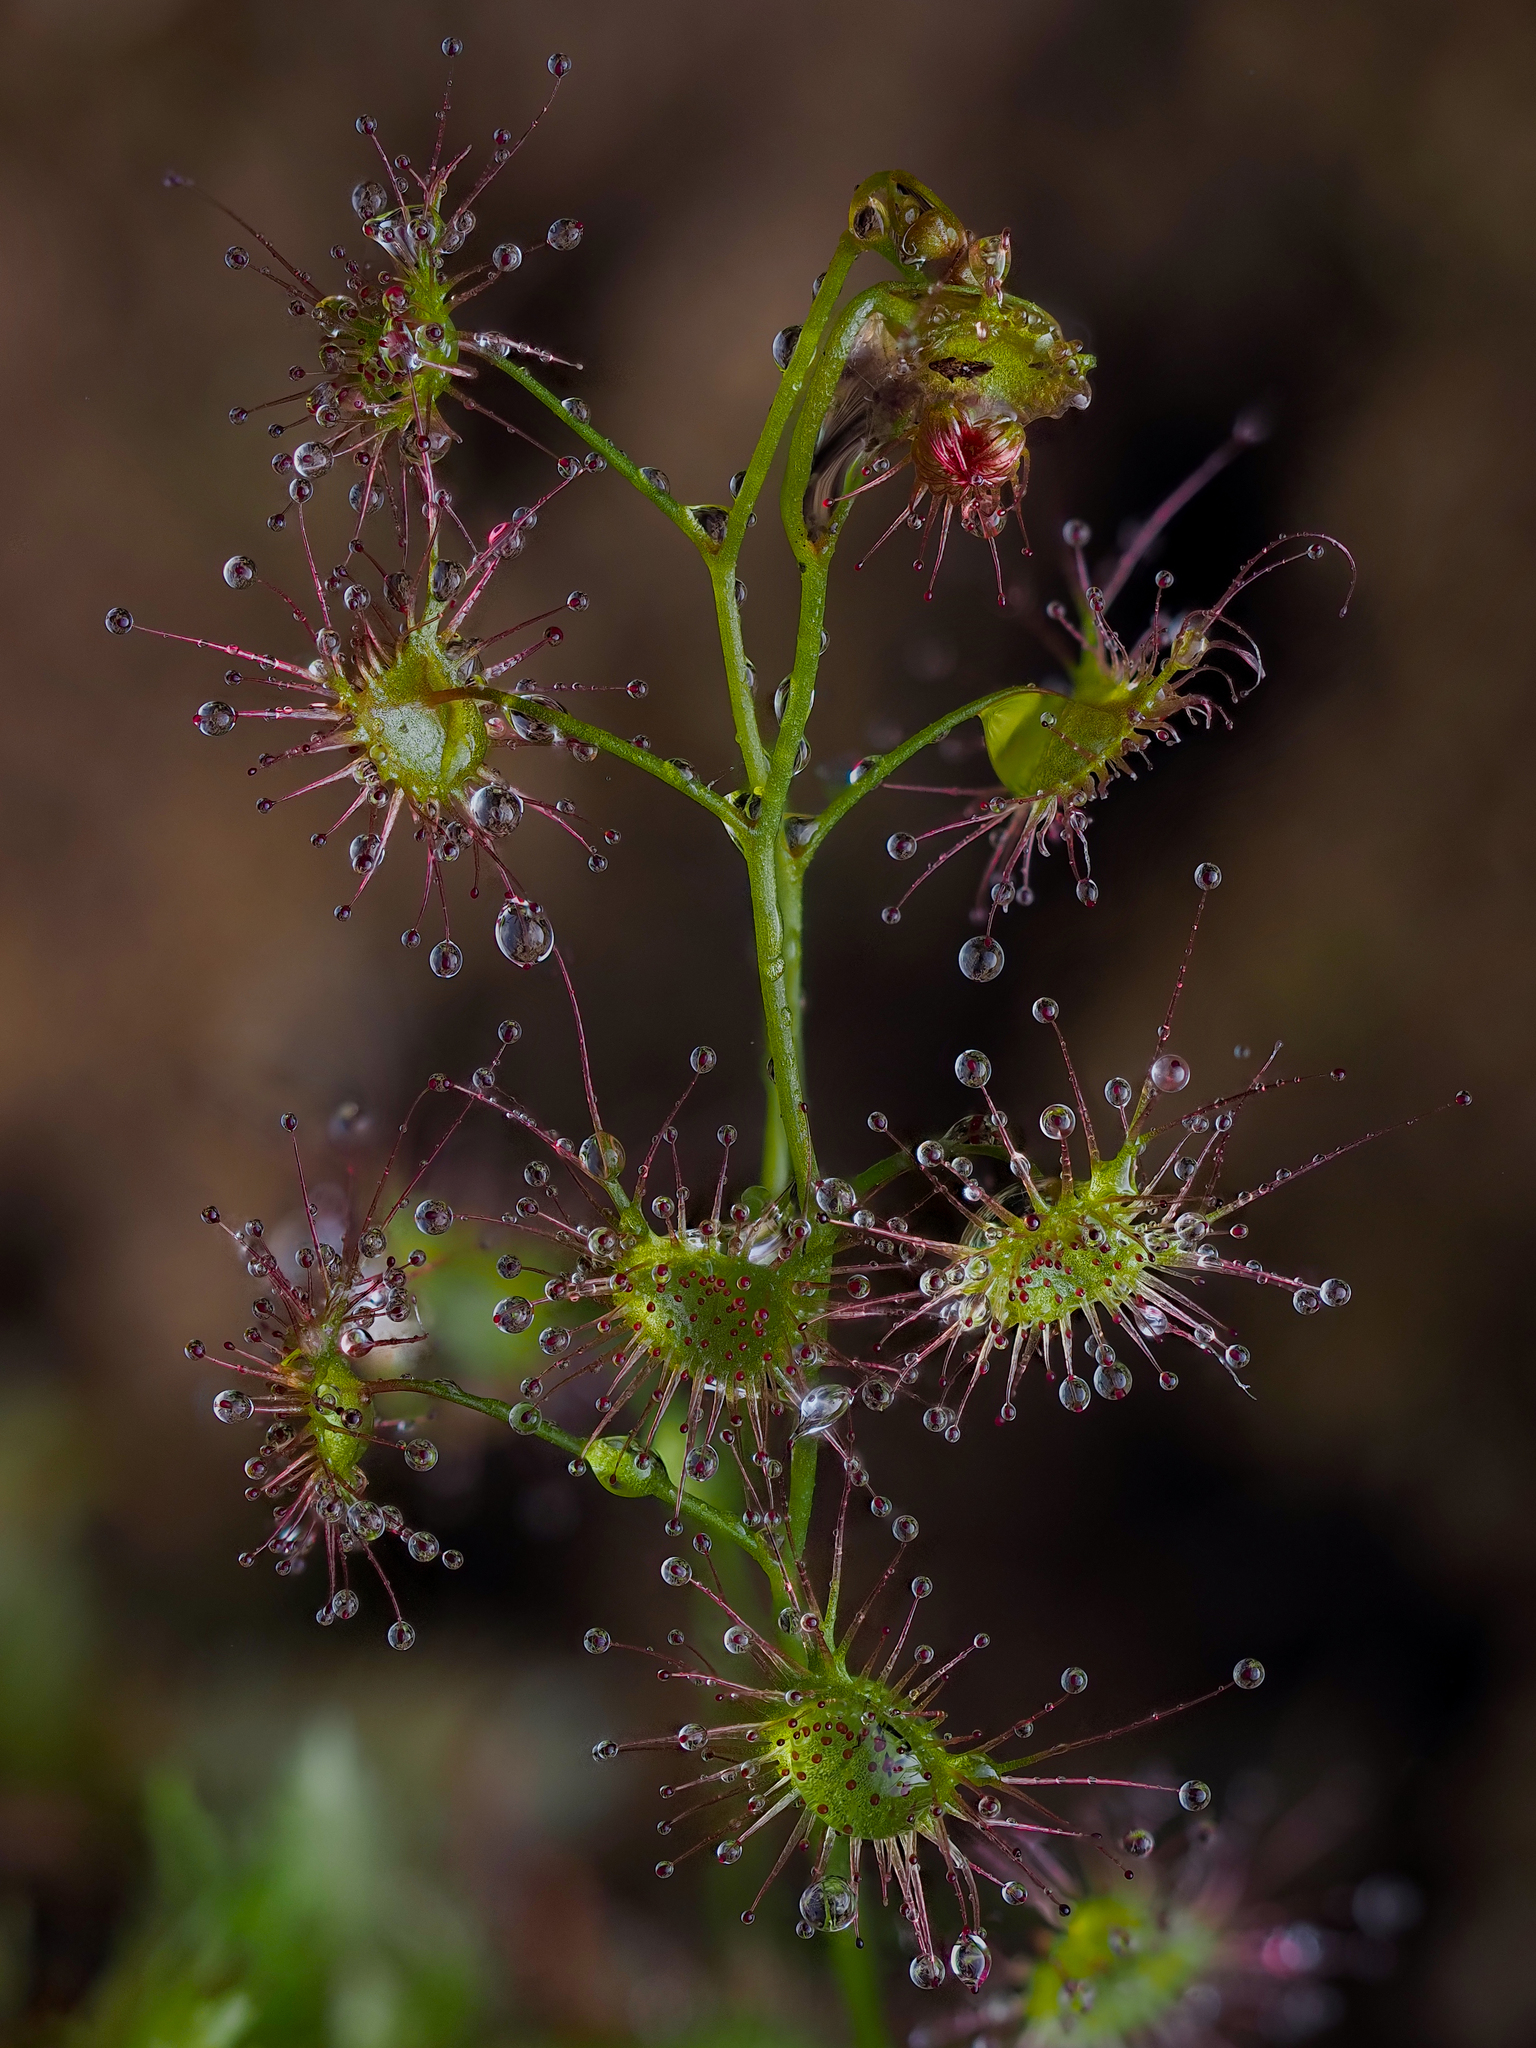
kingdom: Plantae
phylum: Tracheophyta
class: Magnoliopsida
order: Caryophyllales
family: Droseraceae
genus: Drosera
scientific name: Drosera peltata
